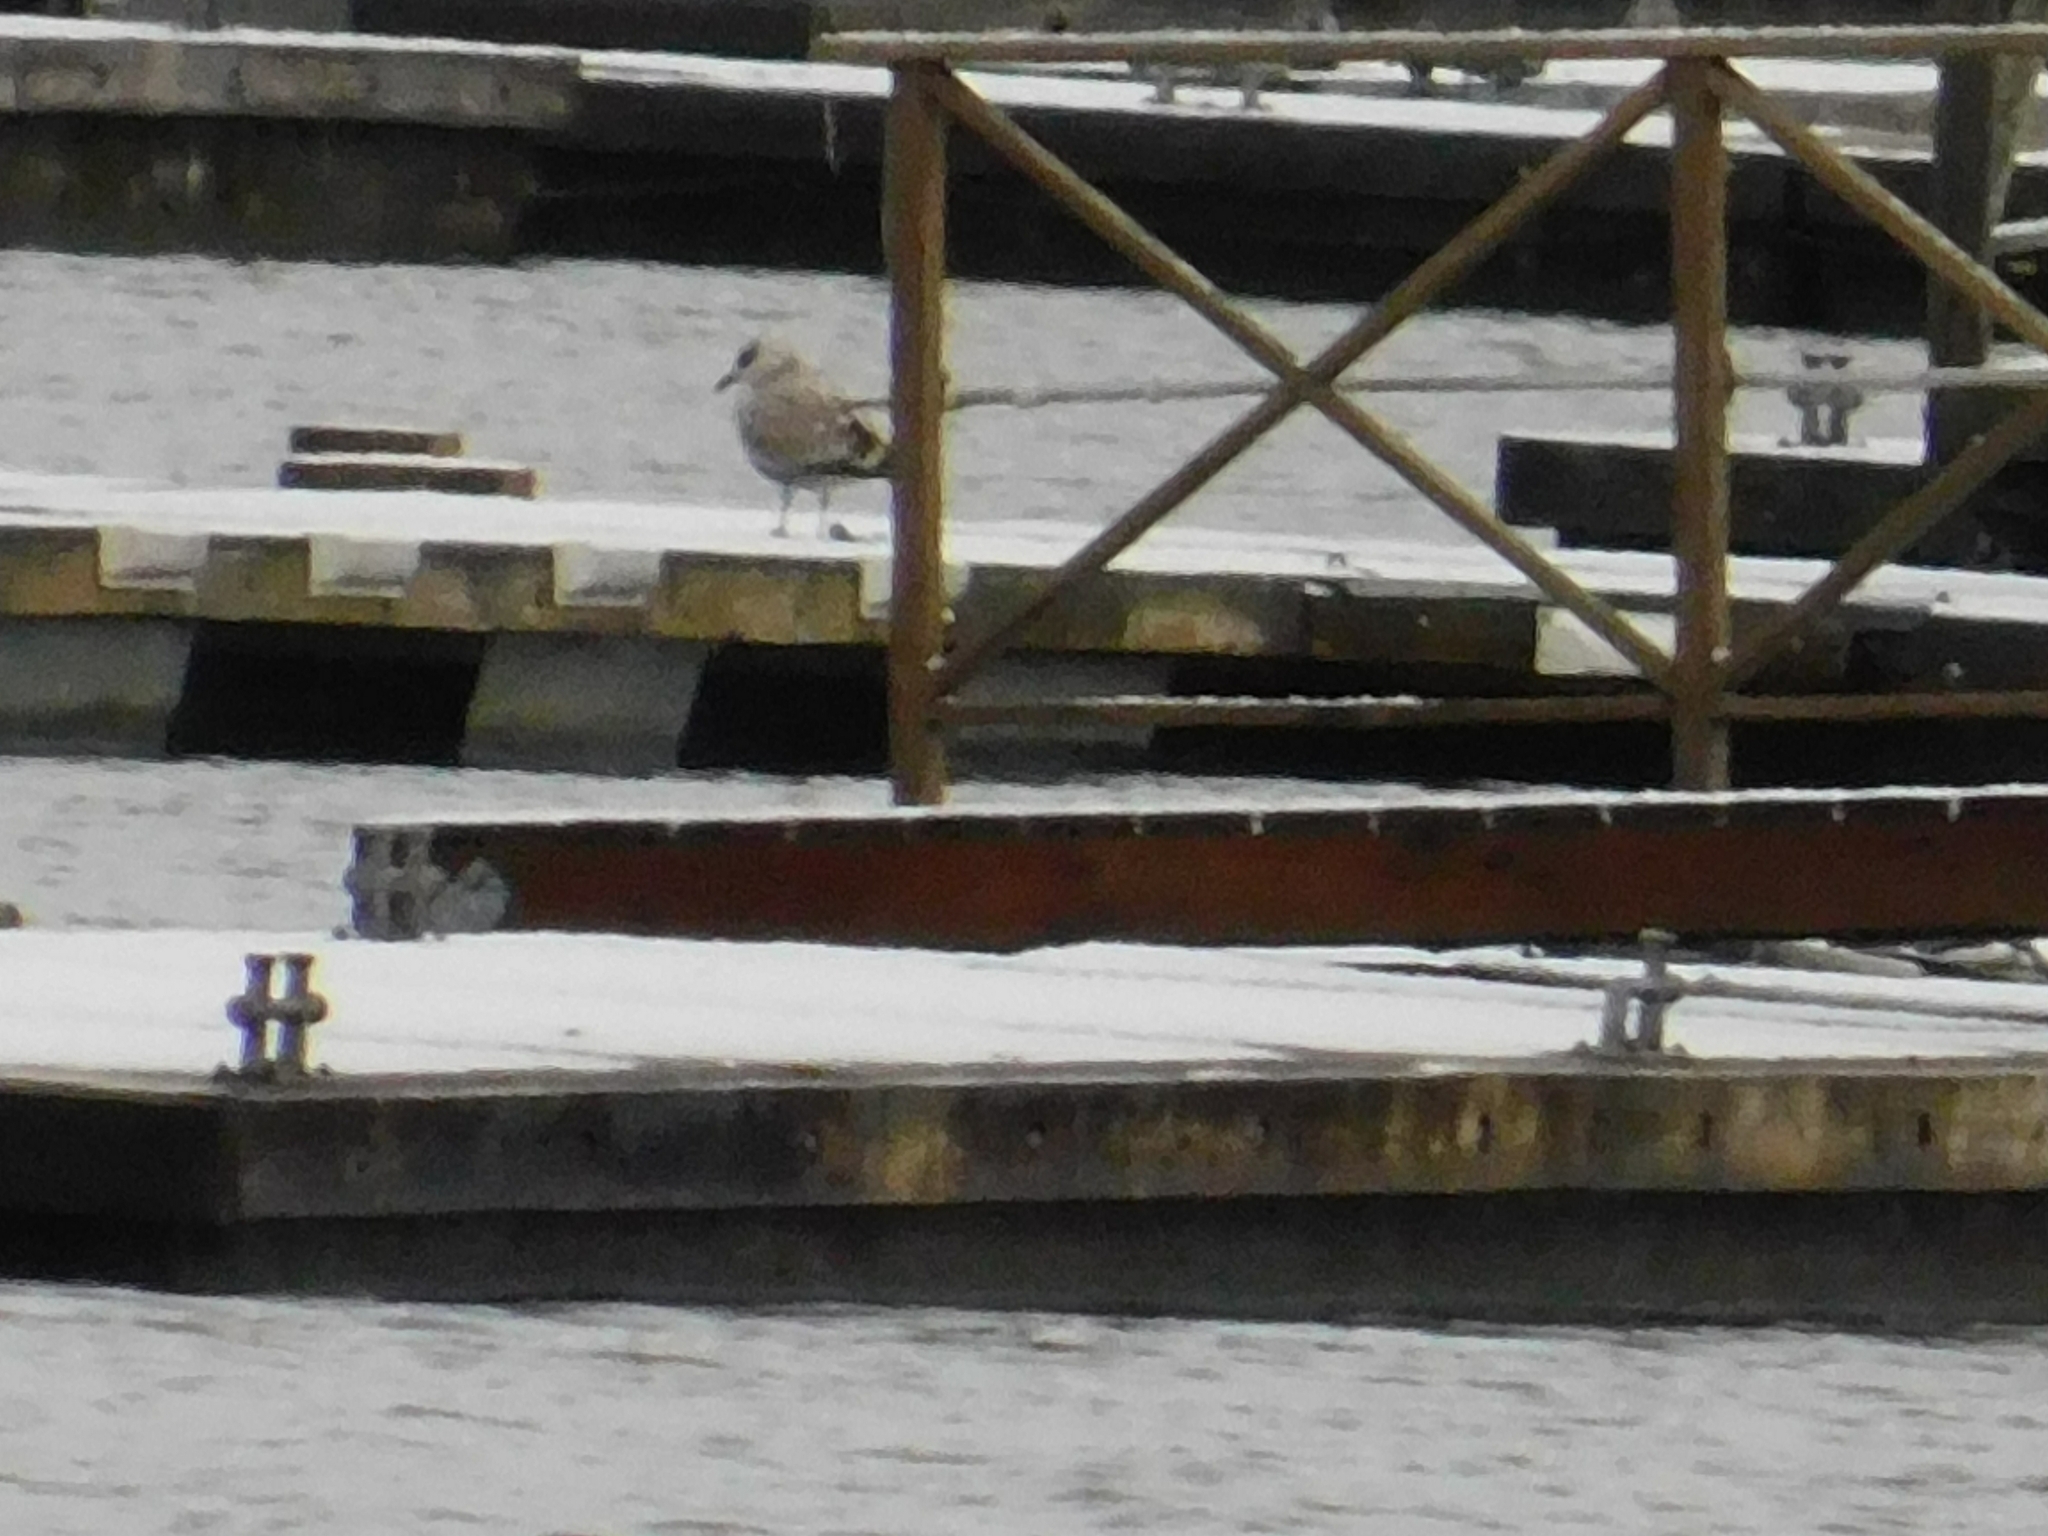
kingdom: Animalia
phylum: Chordata
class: Aves
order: Charadriiformes
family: Laridae
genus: Larus
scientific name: Larus canus
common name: Mew gull
